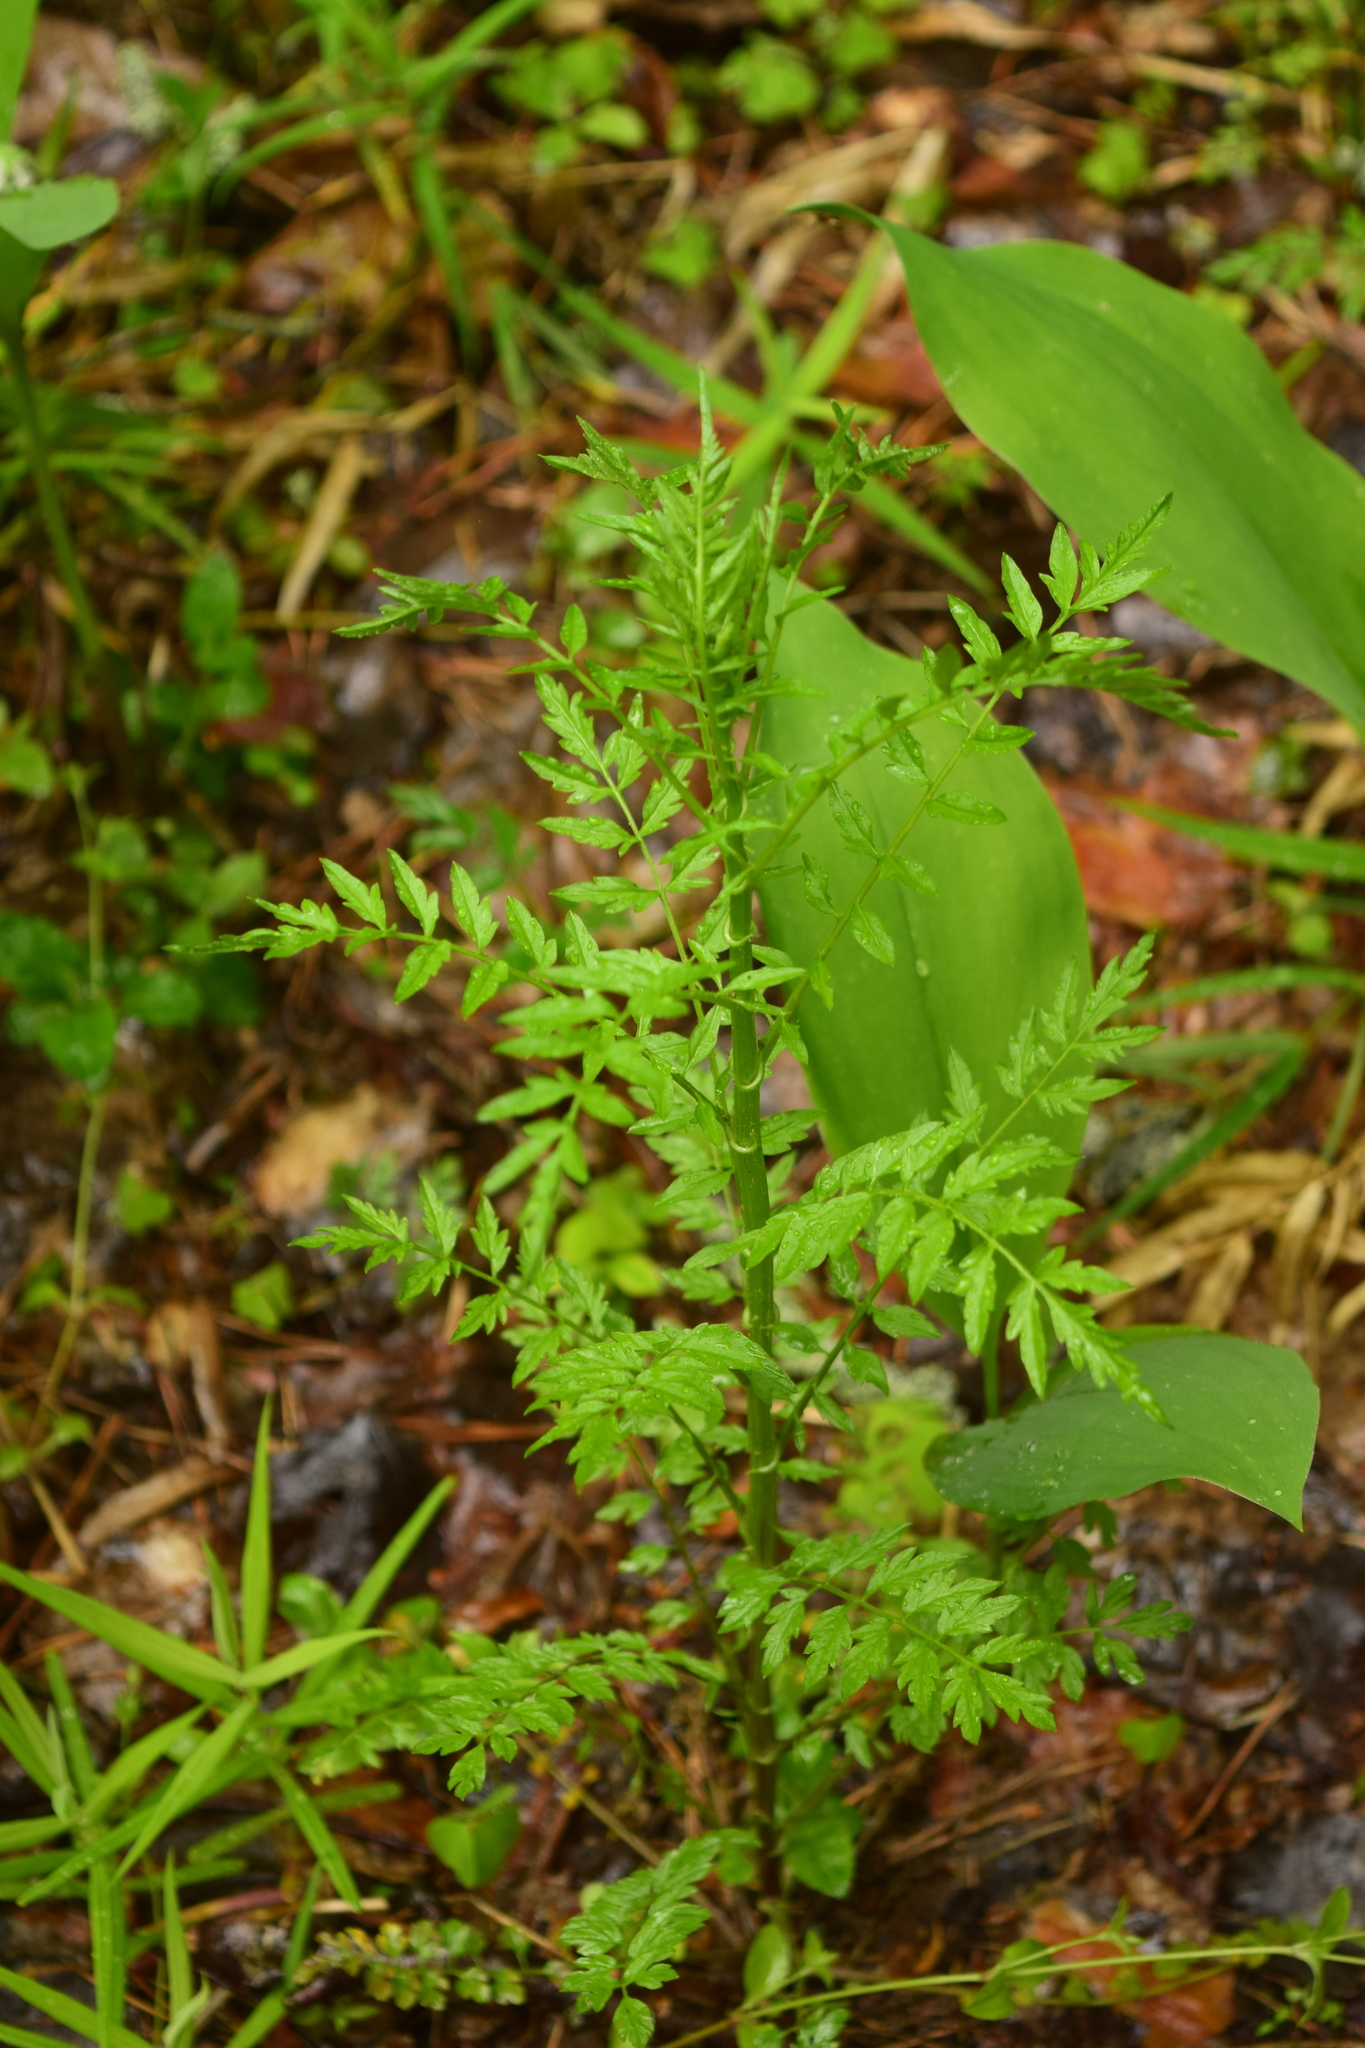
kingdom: Plantae
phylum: Tracheophyta
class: Magnoliopsida
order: Brassicales
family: Brassicaceae
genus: Cardamine
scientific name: Cardamine impatiens
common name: Narrow-leaved bitter-cress
